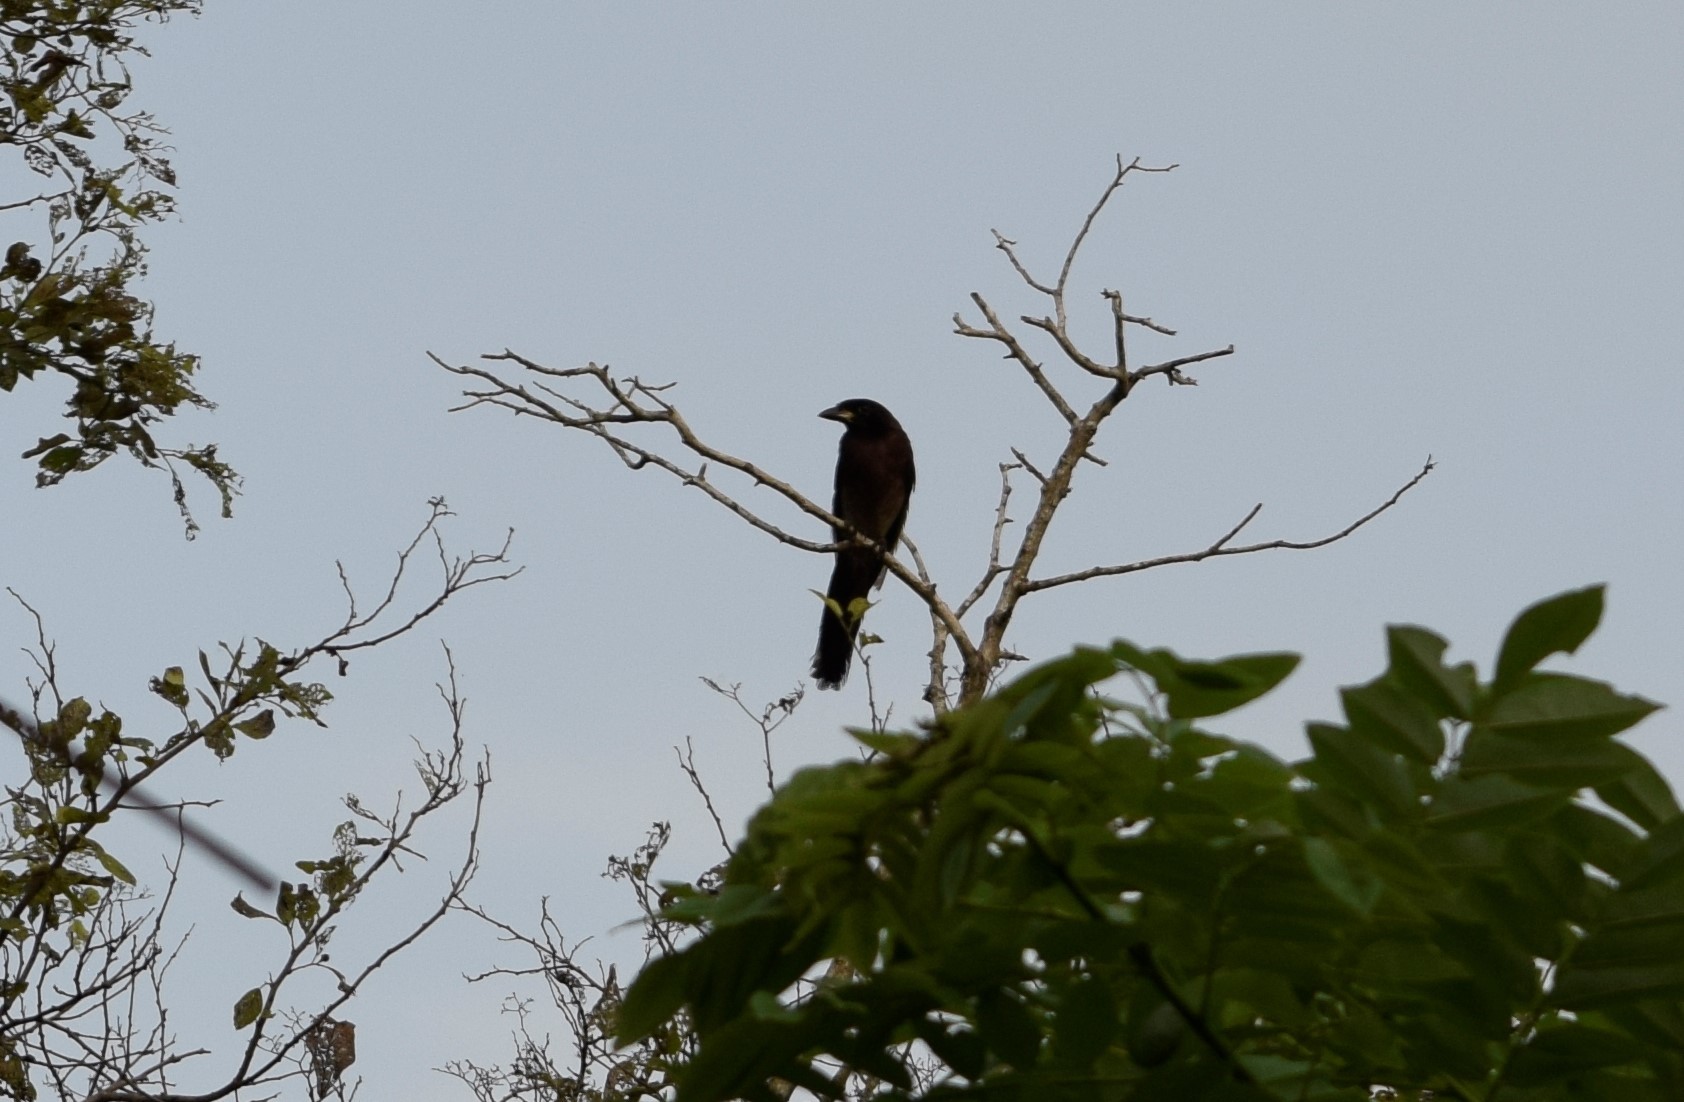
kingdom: Animalia
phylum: Chordata
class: Aves
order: Passeriformes
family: Corvidae
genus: Psilorhinus
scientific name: Psilorhinus morio
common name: Brown jay
